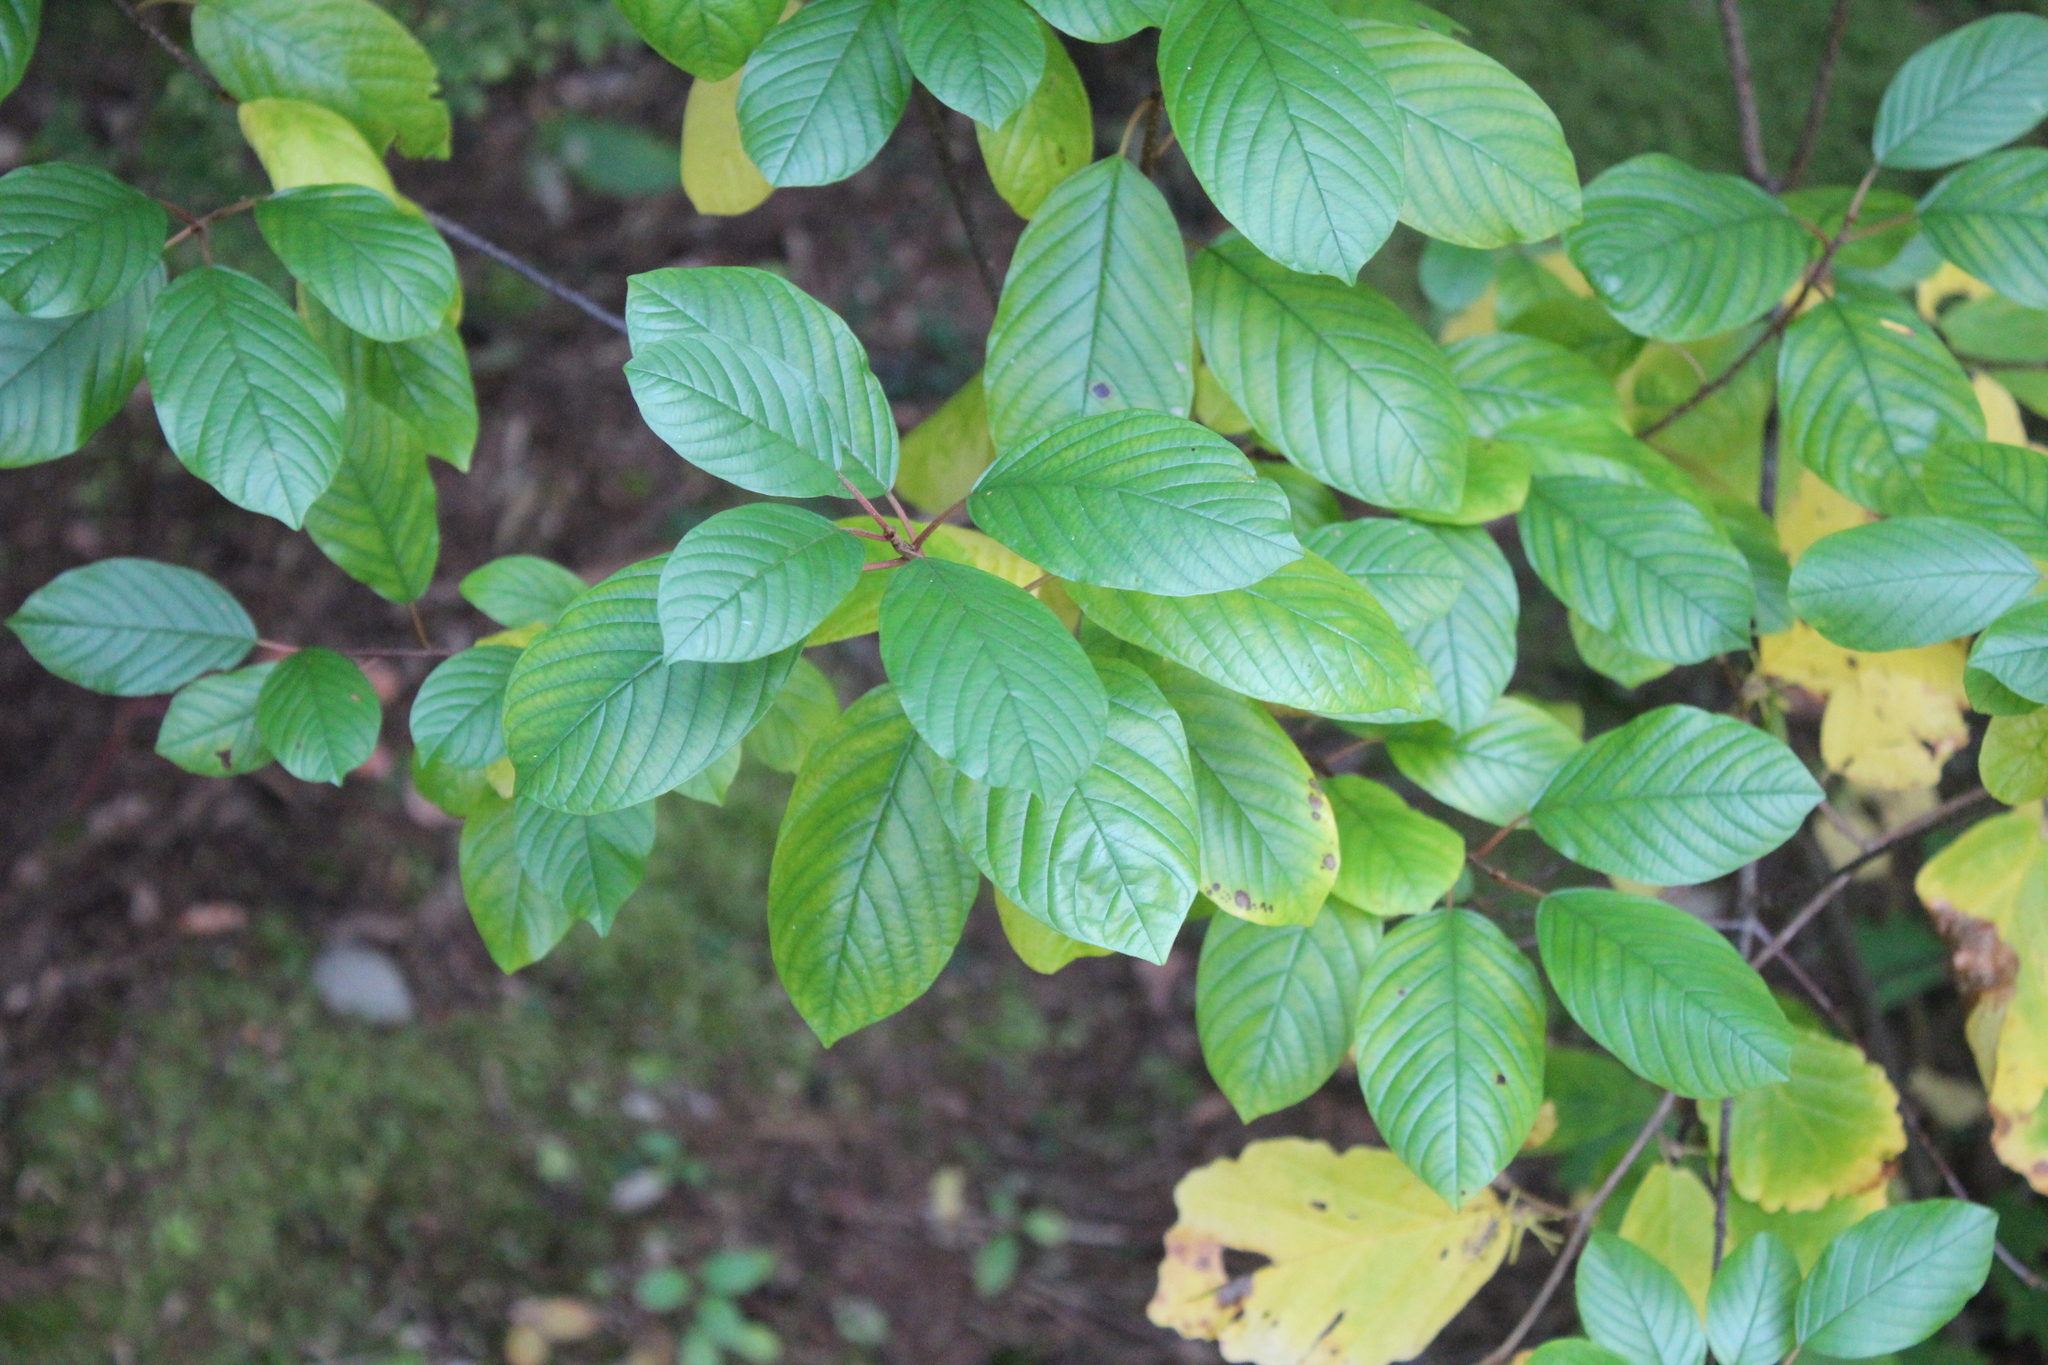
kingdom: Plantae
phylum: Tracheophyta
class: Magnoliopsida
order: Rosales
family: Rhamnaceae
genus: Frangula
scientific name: Frangula alnus
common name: Alder buckthorn
